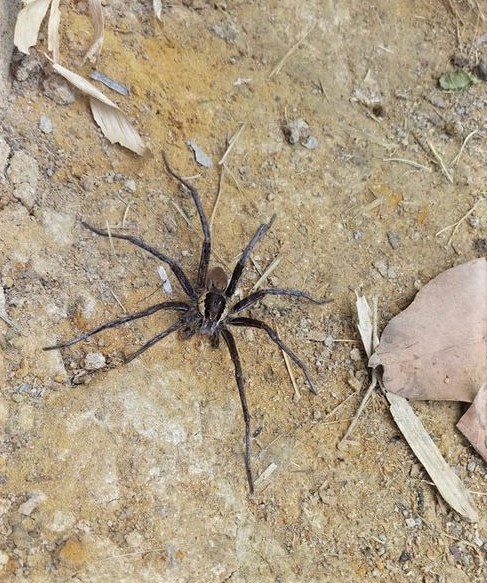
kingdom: Animalia
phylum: Arthropoda
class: Arachnida
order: Araneae
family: Ctenidae
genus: Ancylometes
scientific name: Ancylometes
